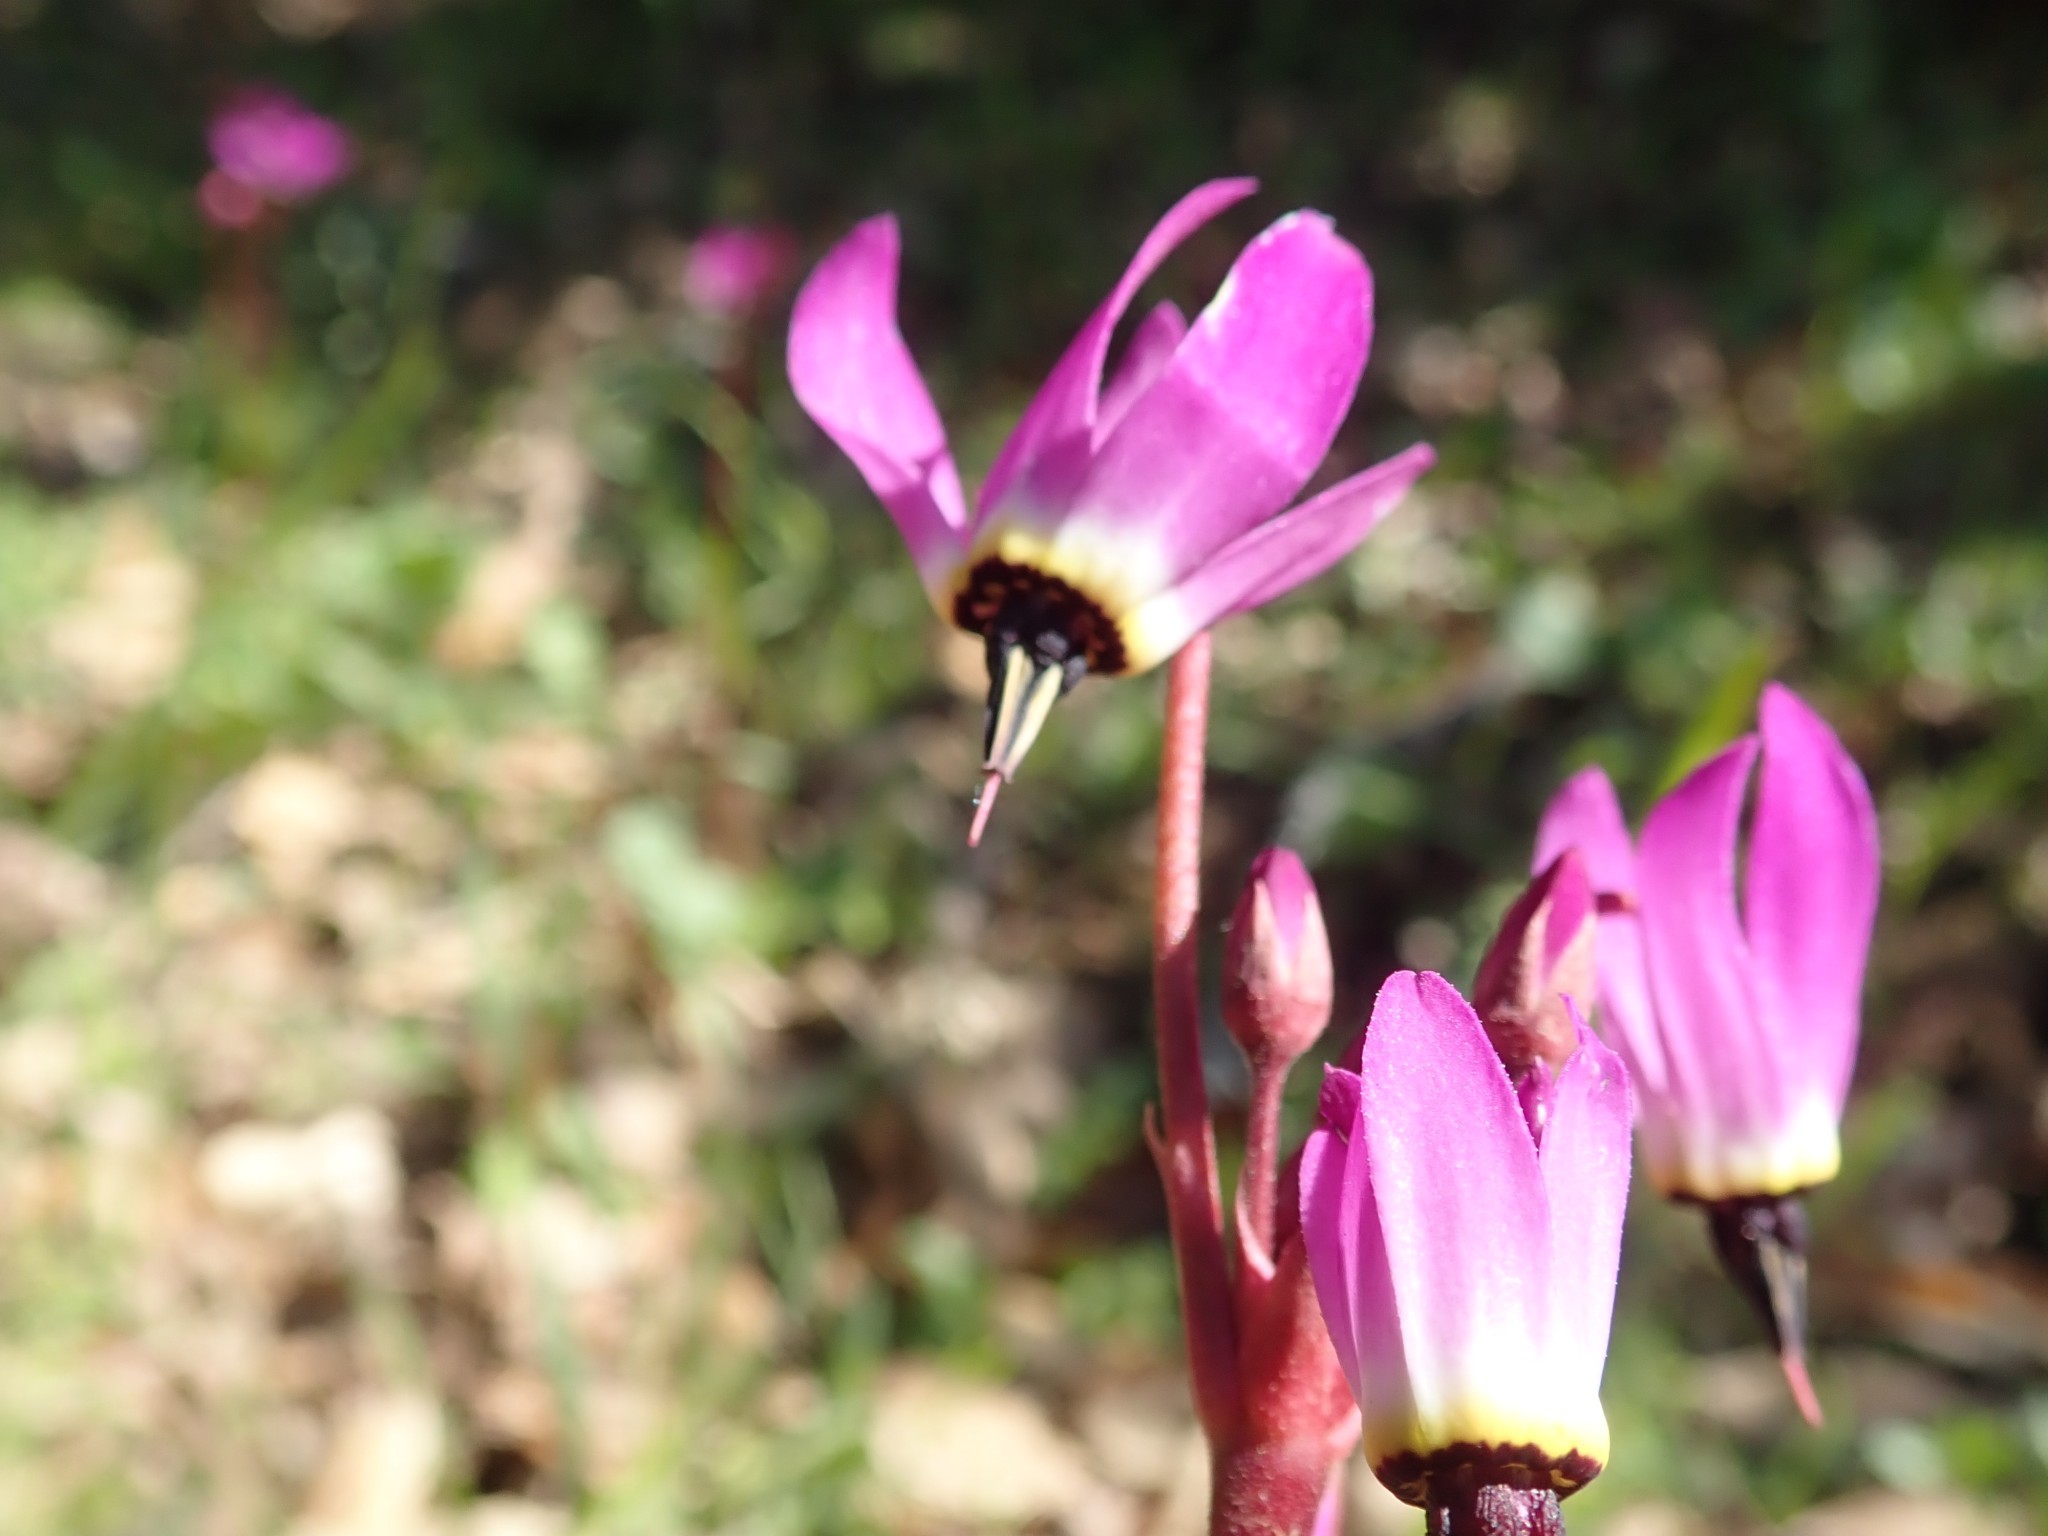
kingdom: Plantae
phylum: Tracheophyta
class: Magnoliopsida
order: Ericales
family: Primulaceae
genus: Dodecatheon
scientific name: Dodecatheon hendersonii
